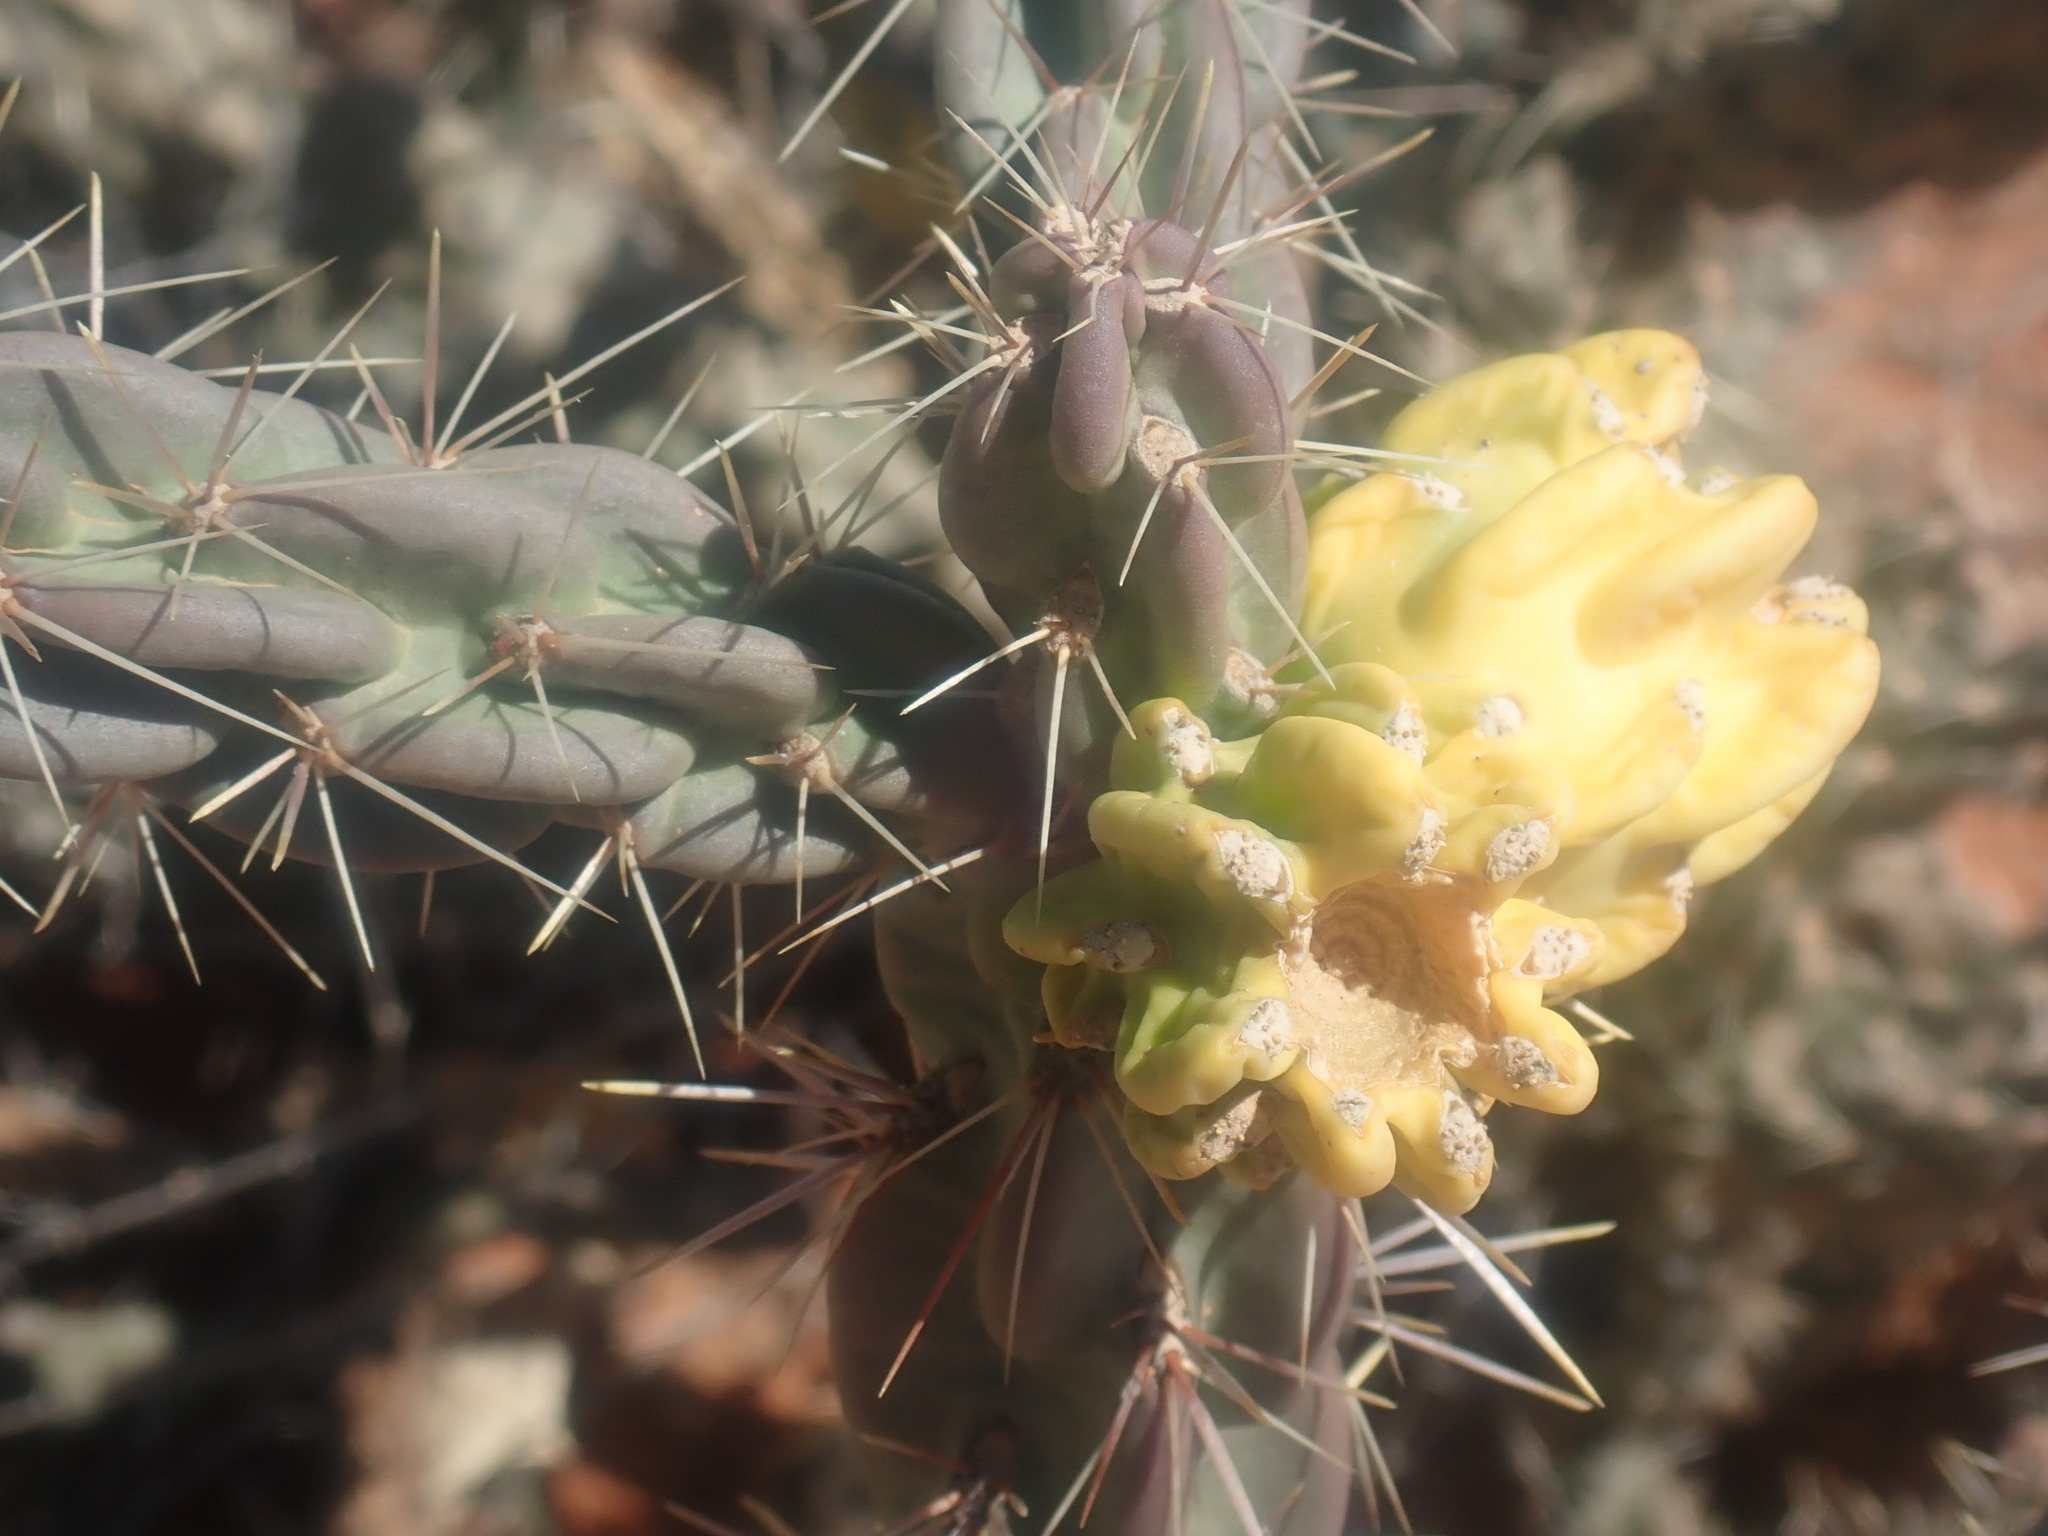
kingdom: Plantae
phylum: Tracheophyta
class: Magnoliopsida
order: Caryophyllales
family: Cactaceae
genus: Cylindropuntia
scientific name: Cylindropuntia imbricata
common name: Candelabrum cactus
